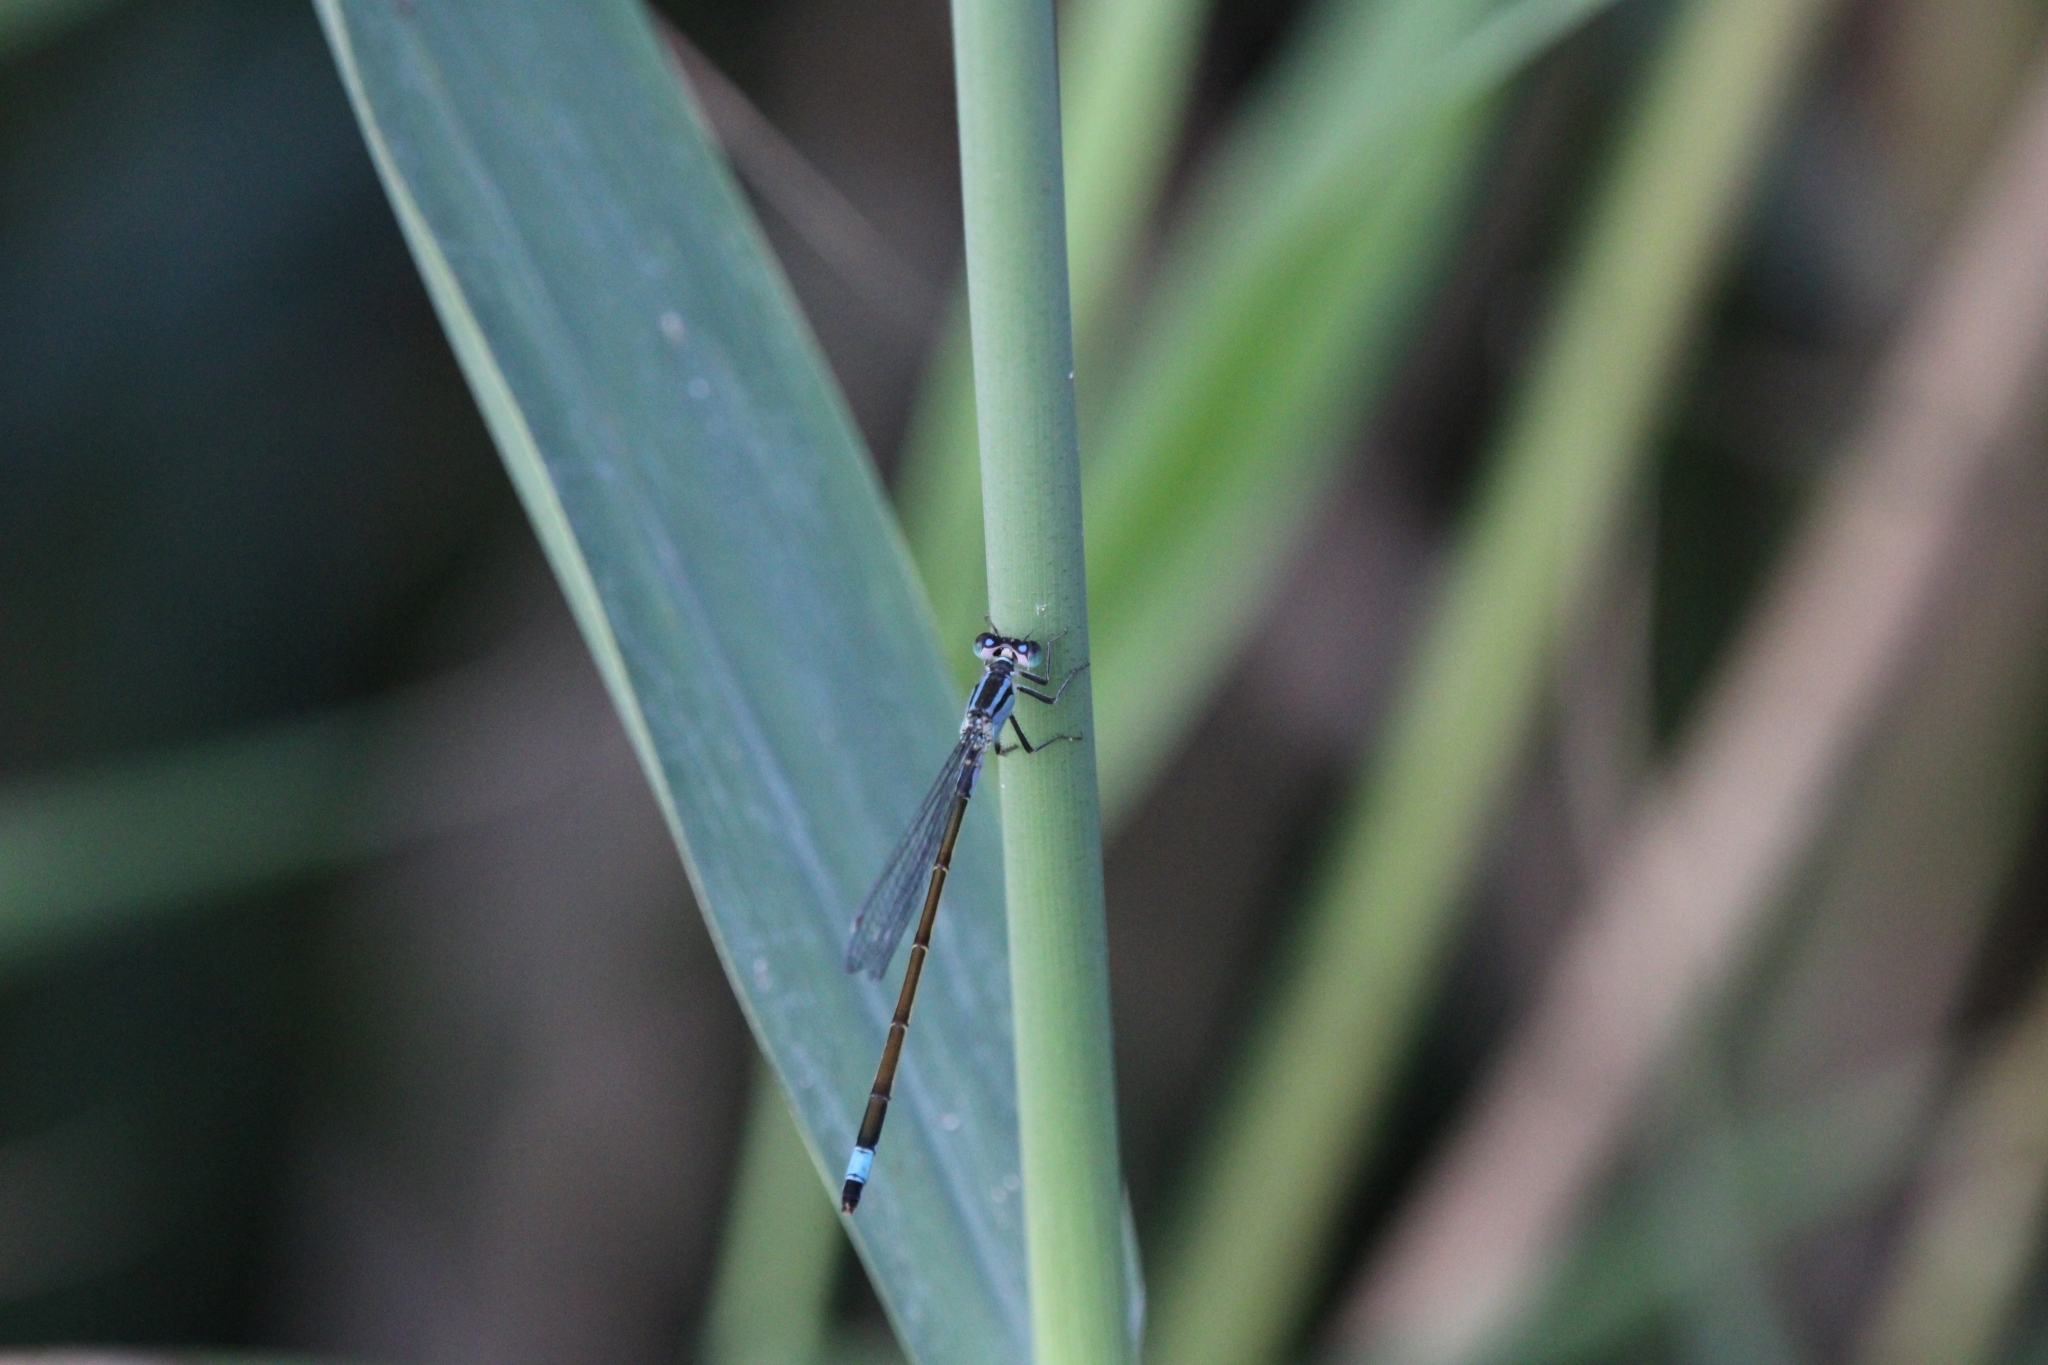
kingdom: Animalia
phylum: Arthropoda
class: Insecta
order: Odonata
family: Coenagrionidae
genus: Ischnura
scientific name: Ischnura elegans
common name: Blue-tailed damselfly
